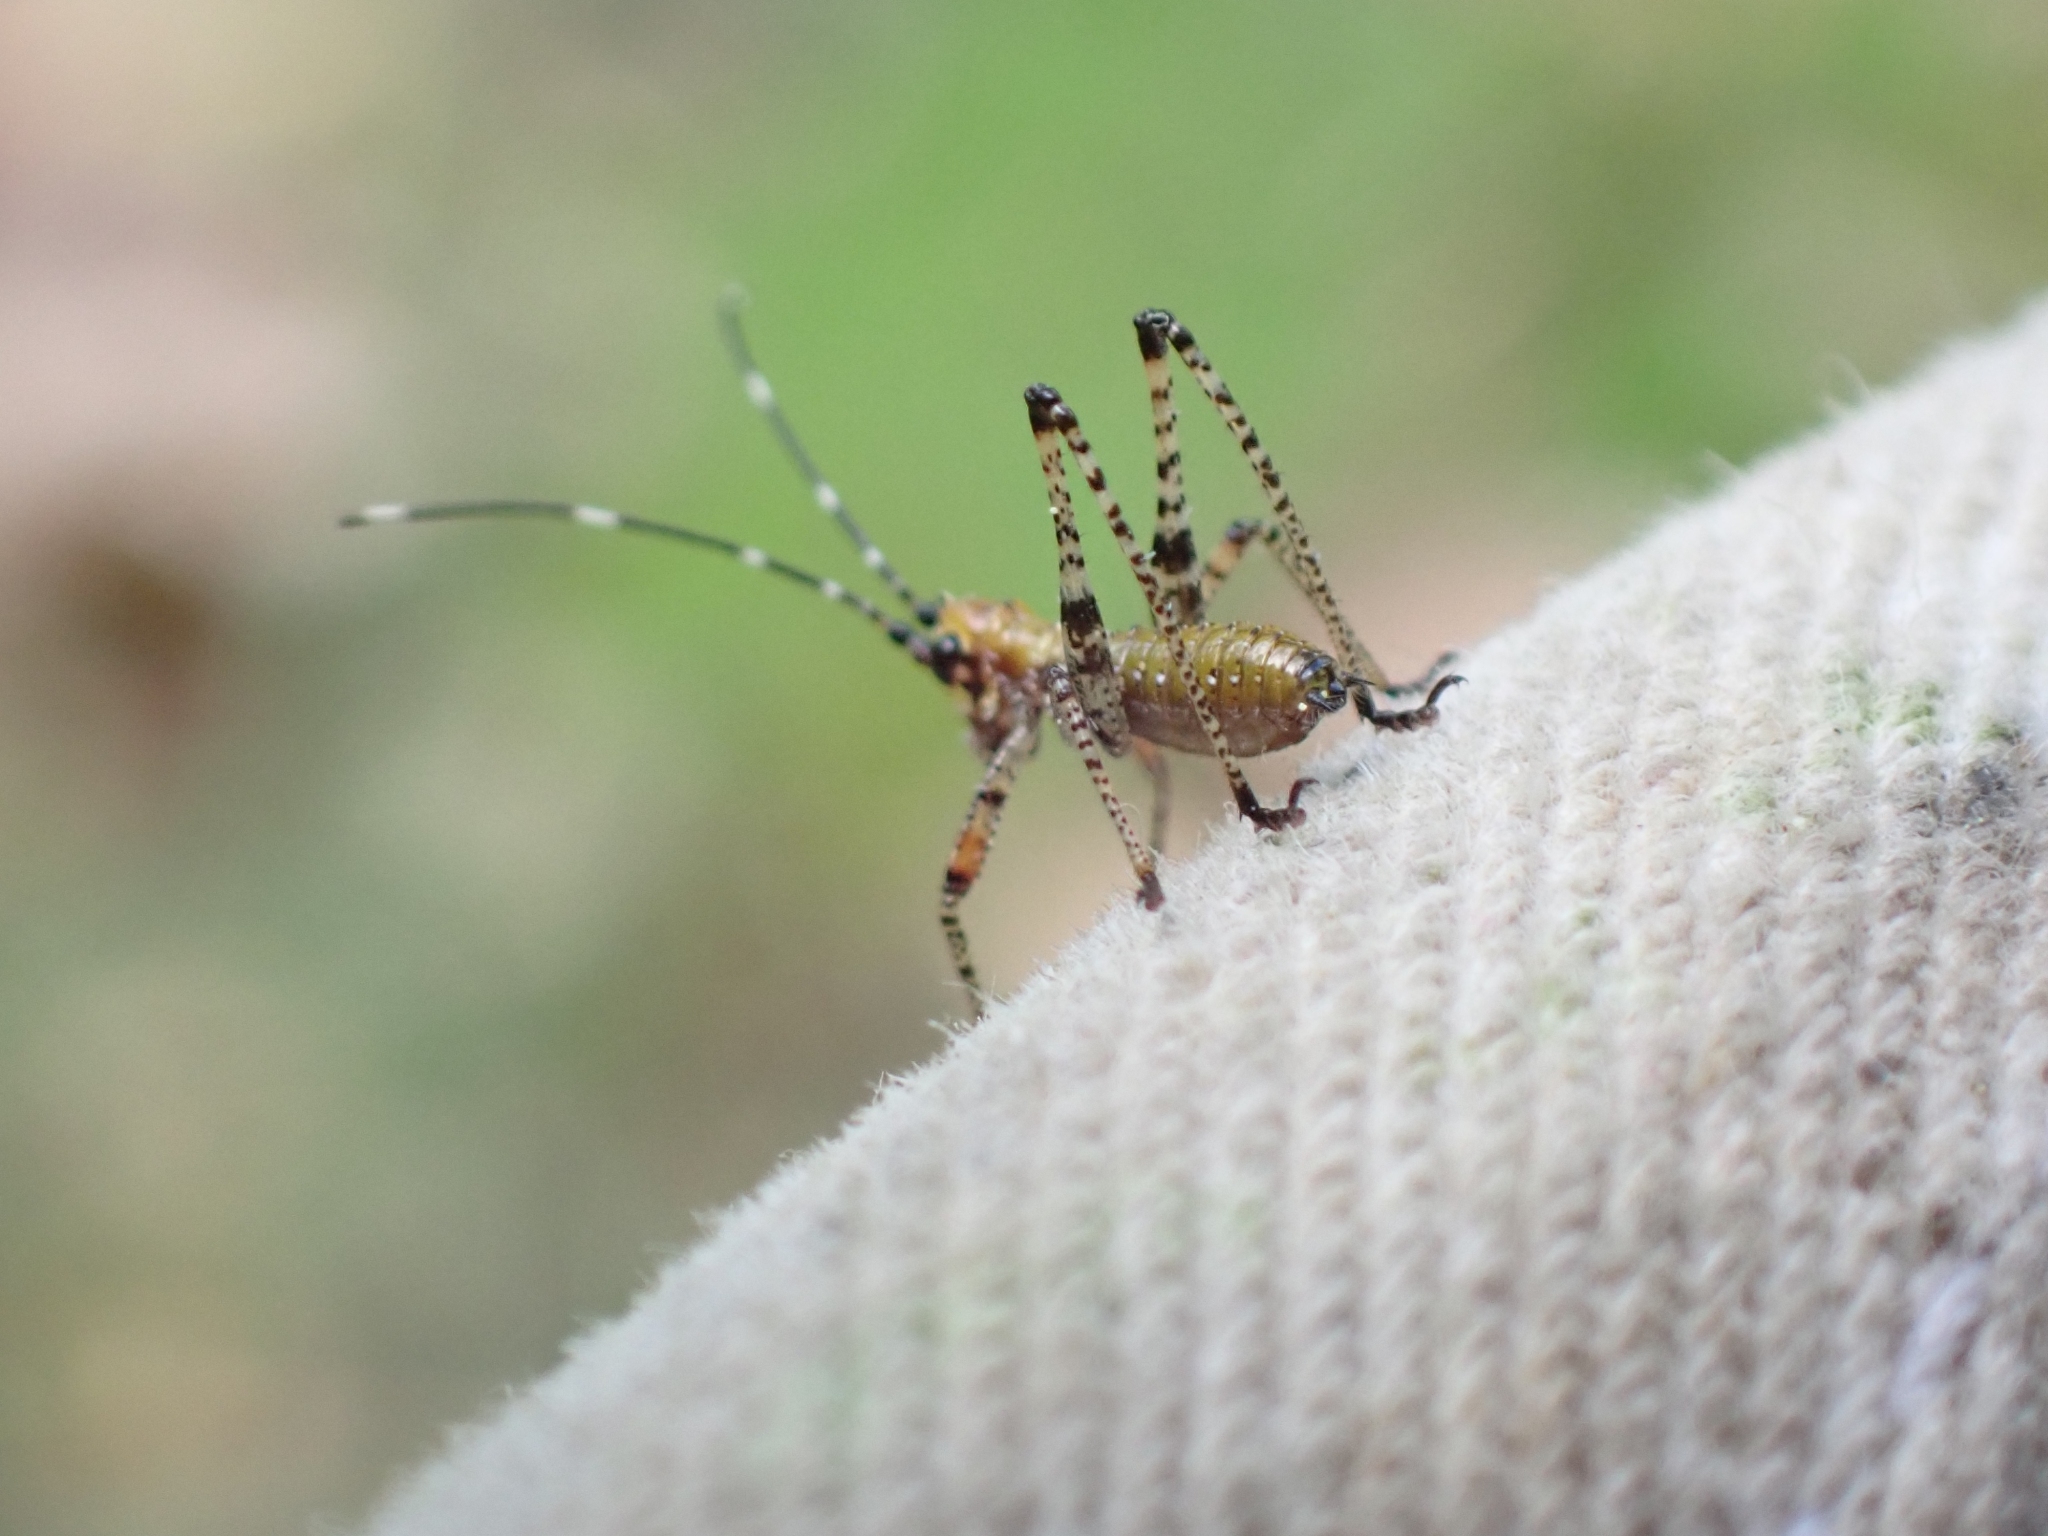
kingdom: Animalia
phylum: Arthropoda
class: Insecta
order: Orthoptera
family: Tettigoniidae
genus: Scudderia
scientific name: Scudderia furcata
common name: Fork-tailed bush katydid
